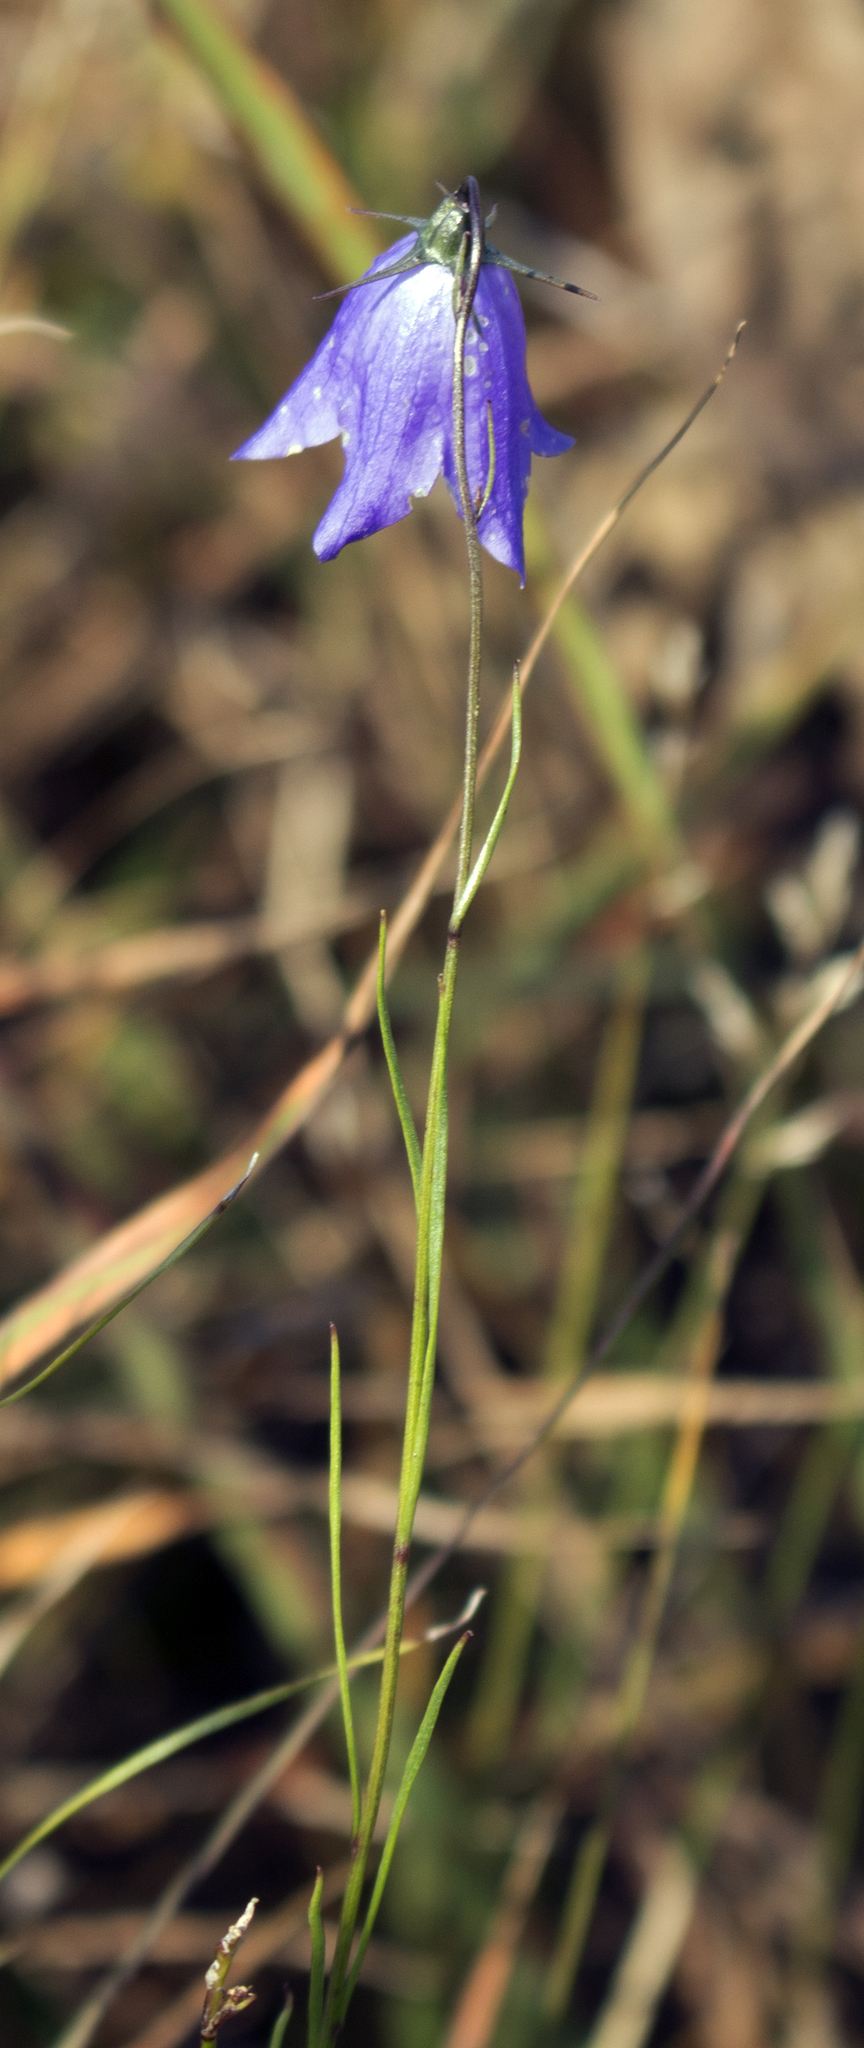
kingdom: Plantae
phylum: Tracheophyta
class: Magnoliopsida
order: Asterales
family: Campanulaceae
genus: Campanula
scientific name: Campanula intercedens
